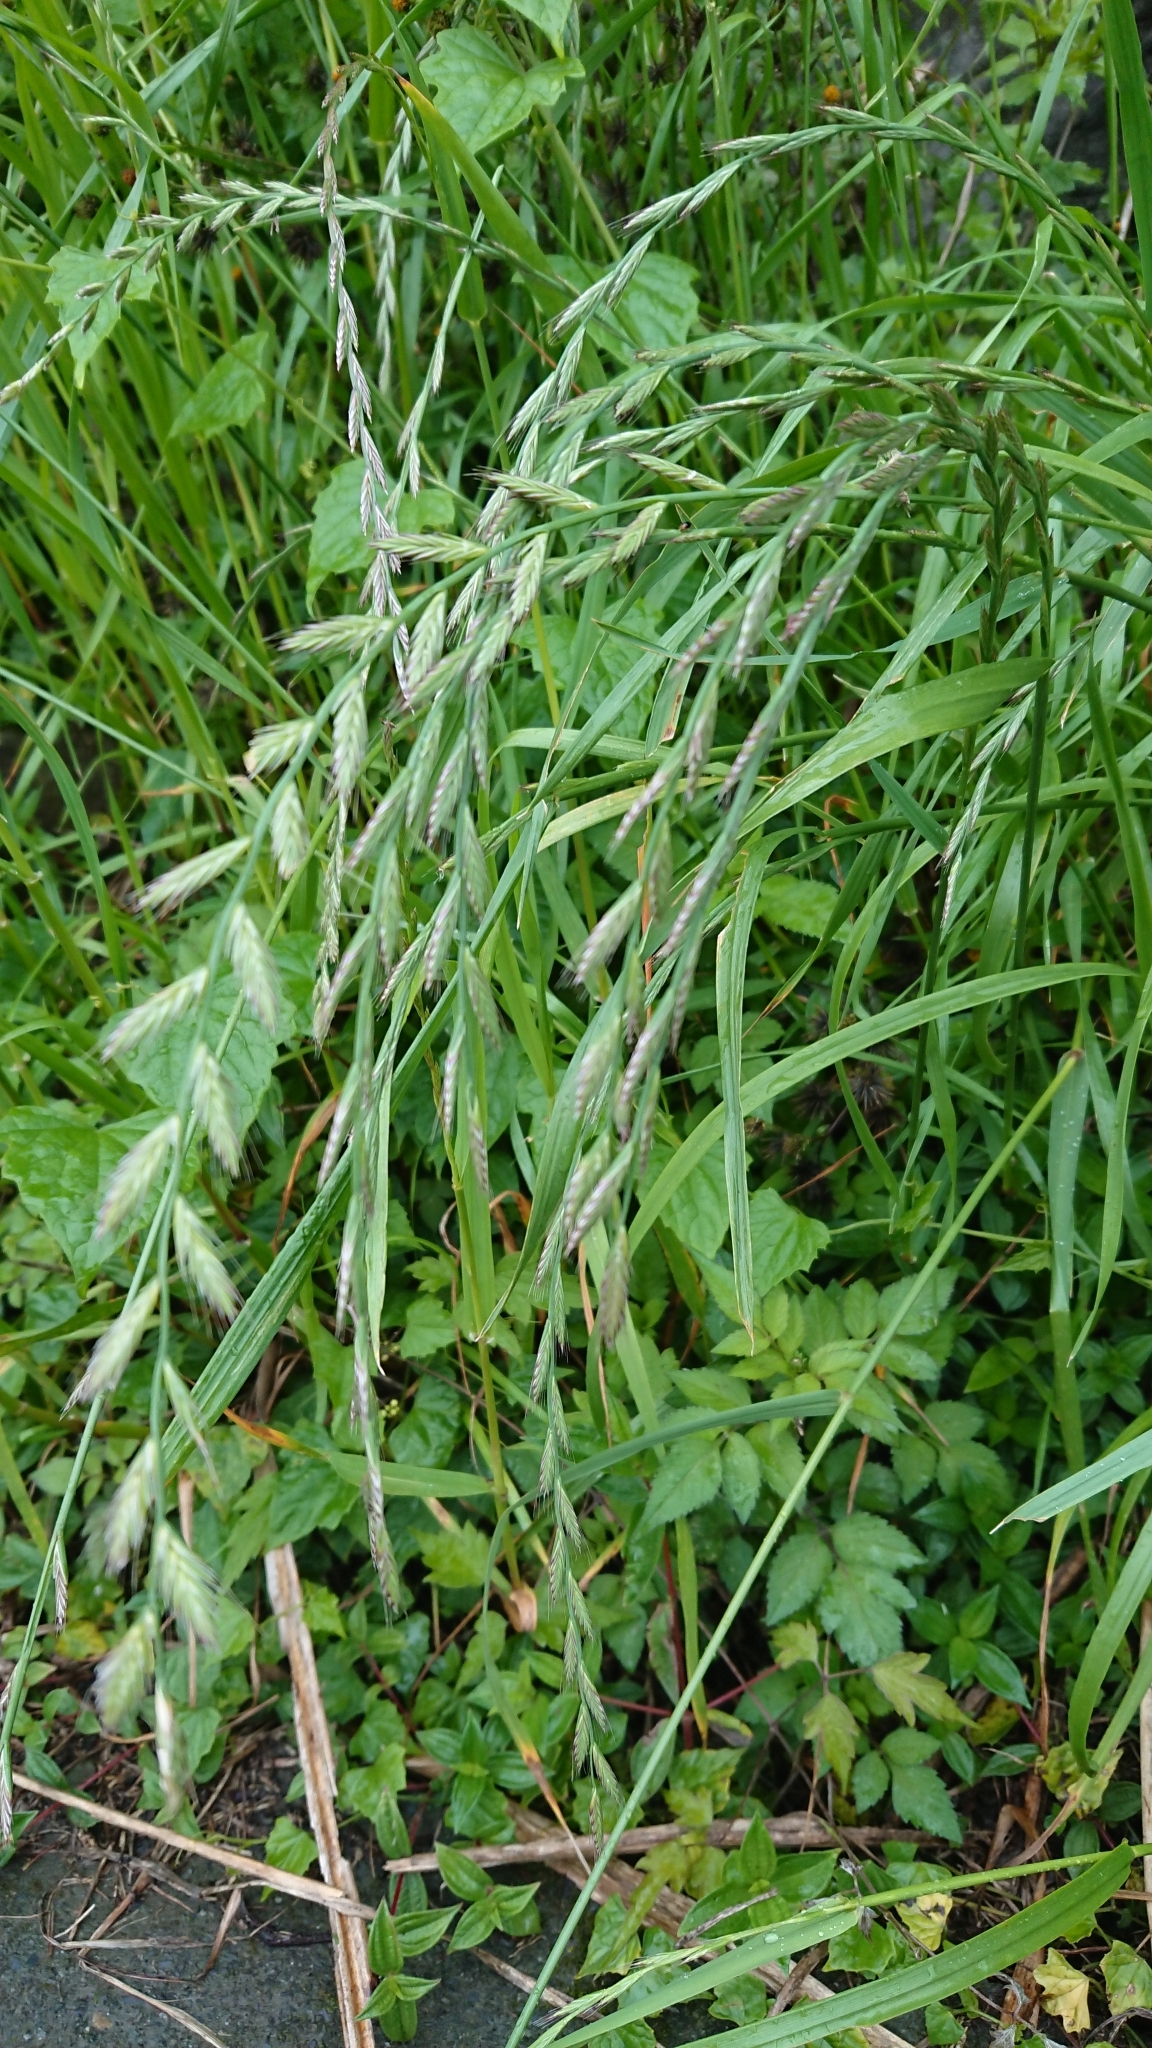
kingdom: Plantae
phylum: Tracheophyta
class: Liliopsida
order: Poales
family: Poaceae
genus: Lolium
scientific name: Lolium multiflorum
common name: Annual ryegrass
